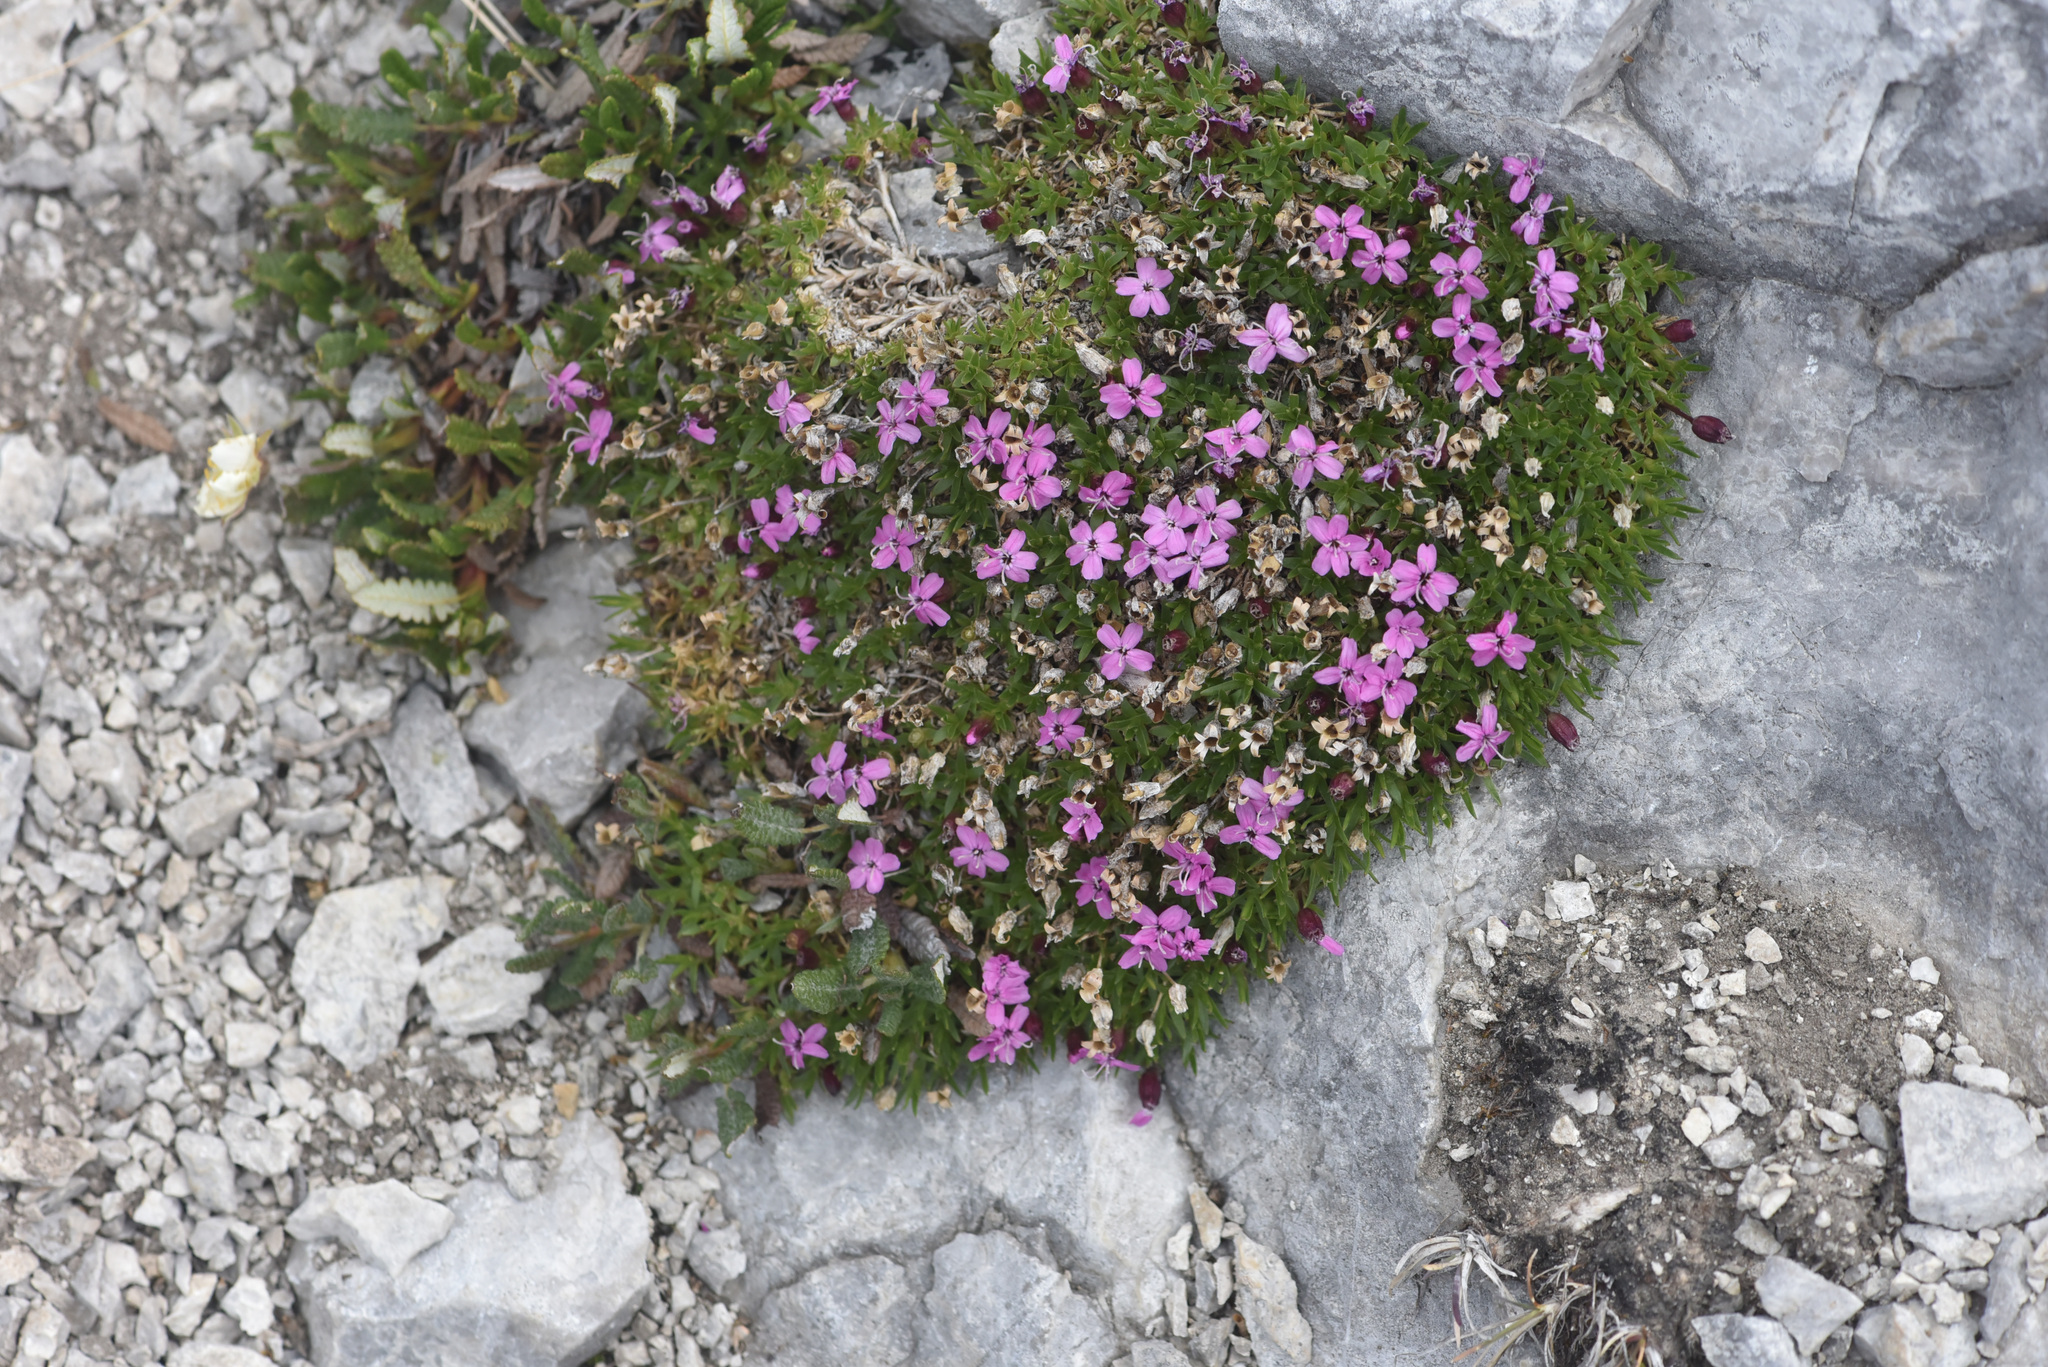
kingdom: Plantae
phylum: Tracheophyta
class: Magnoliopsida
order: Caryophyllales
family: Caryophyllaceae
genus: Silene
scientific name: Silene acaulis
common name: Moss campion
